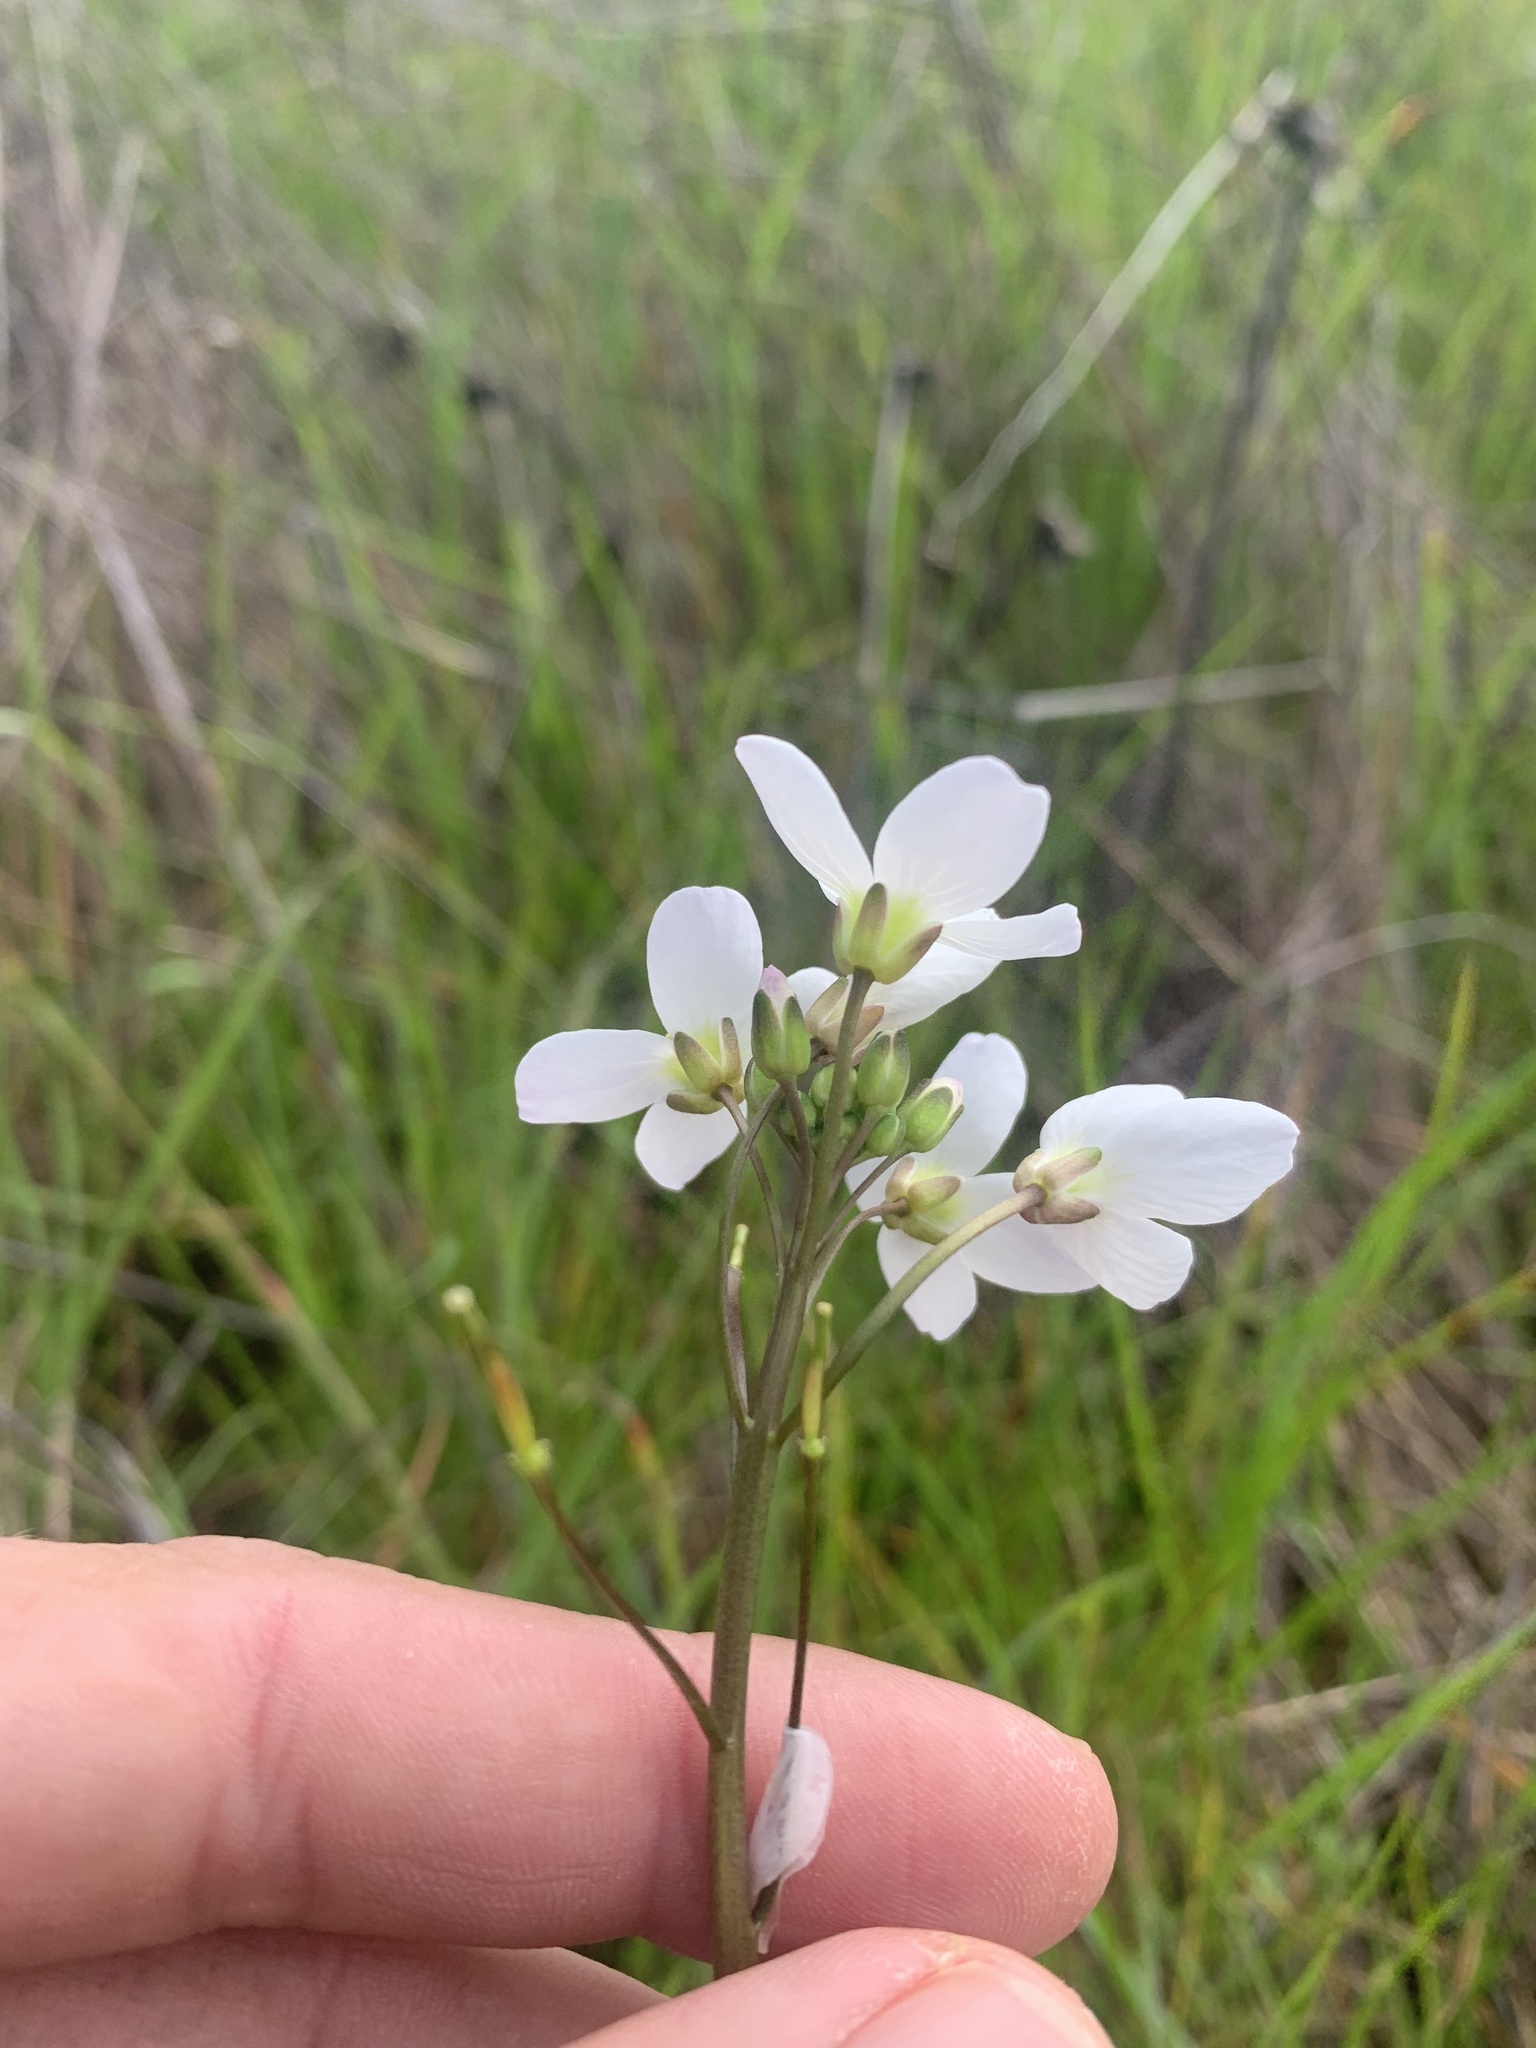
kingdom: Plantae
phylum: Tracheophyta
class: Magnoliopsida
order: Brassicales
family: Brassicaceae
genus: Cardamine
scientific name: Cardamine californica
